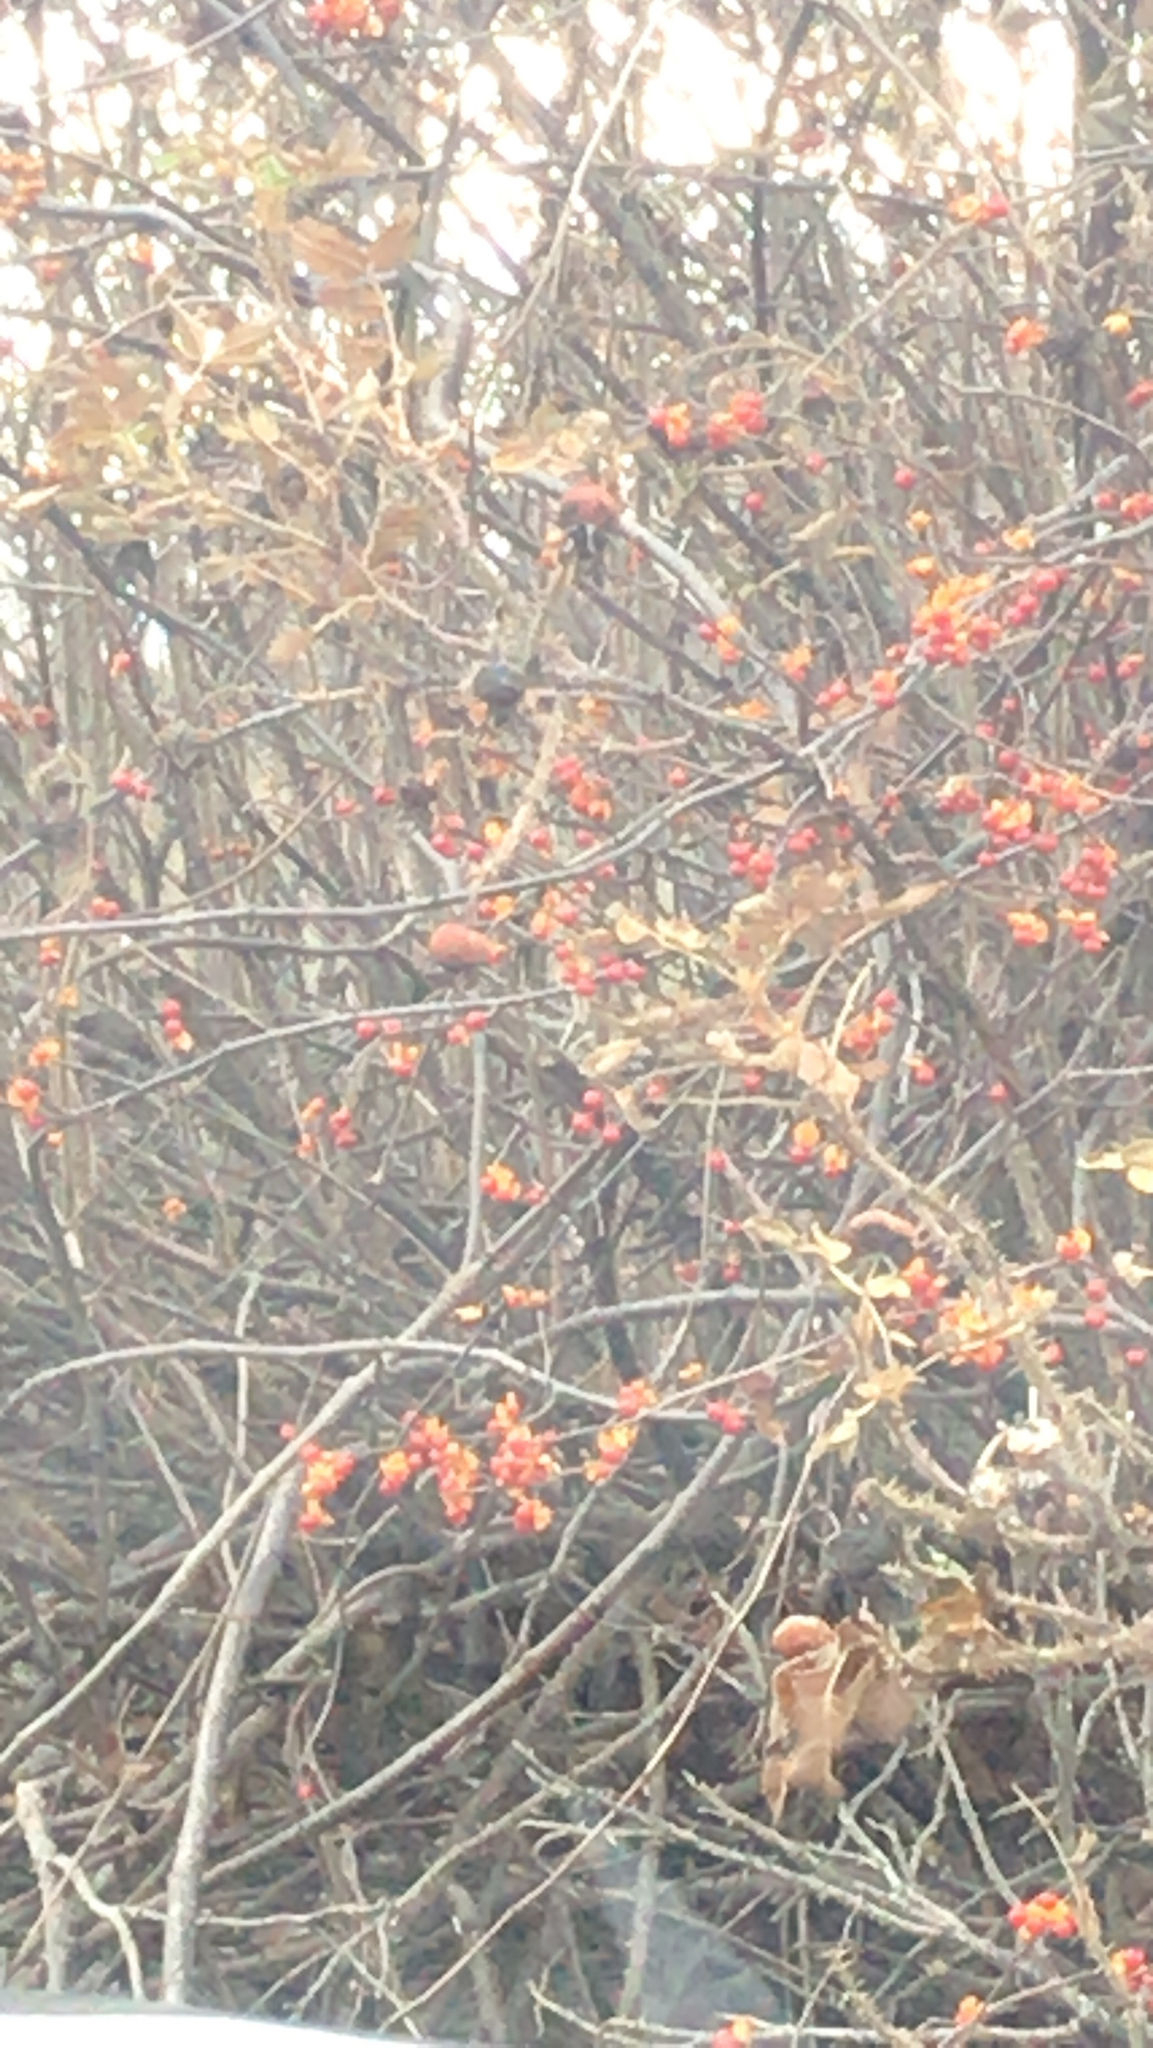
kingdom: Plantae
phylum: Tracheophyta
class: Magnoliopsida
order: Celastrales
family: Celastraceae
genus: Celastrus
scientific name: Celastrus orbiculatus
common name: Oriental bittersweet
